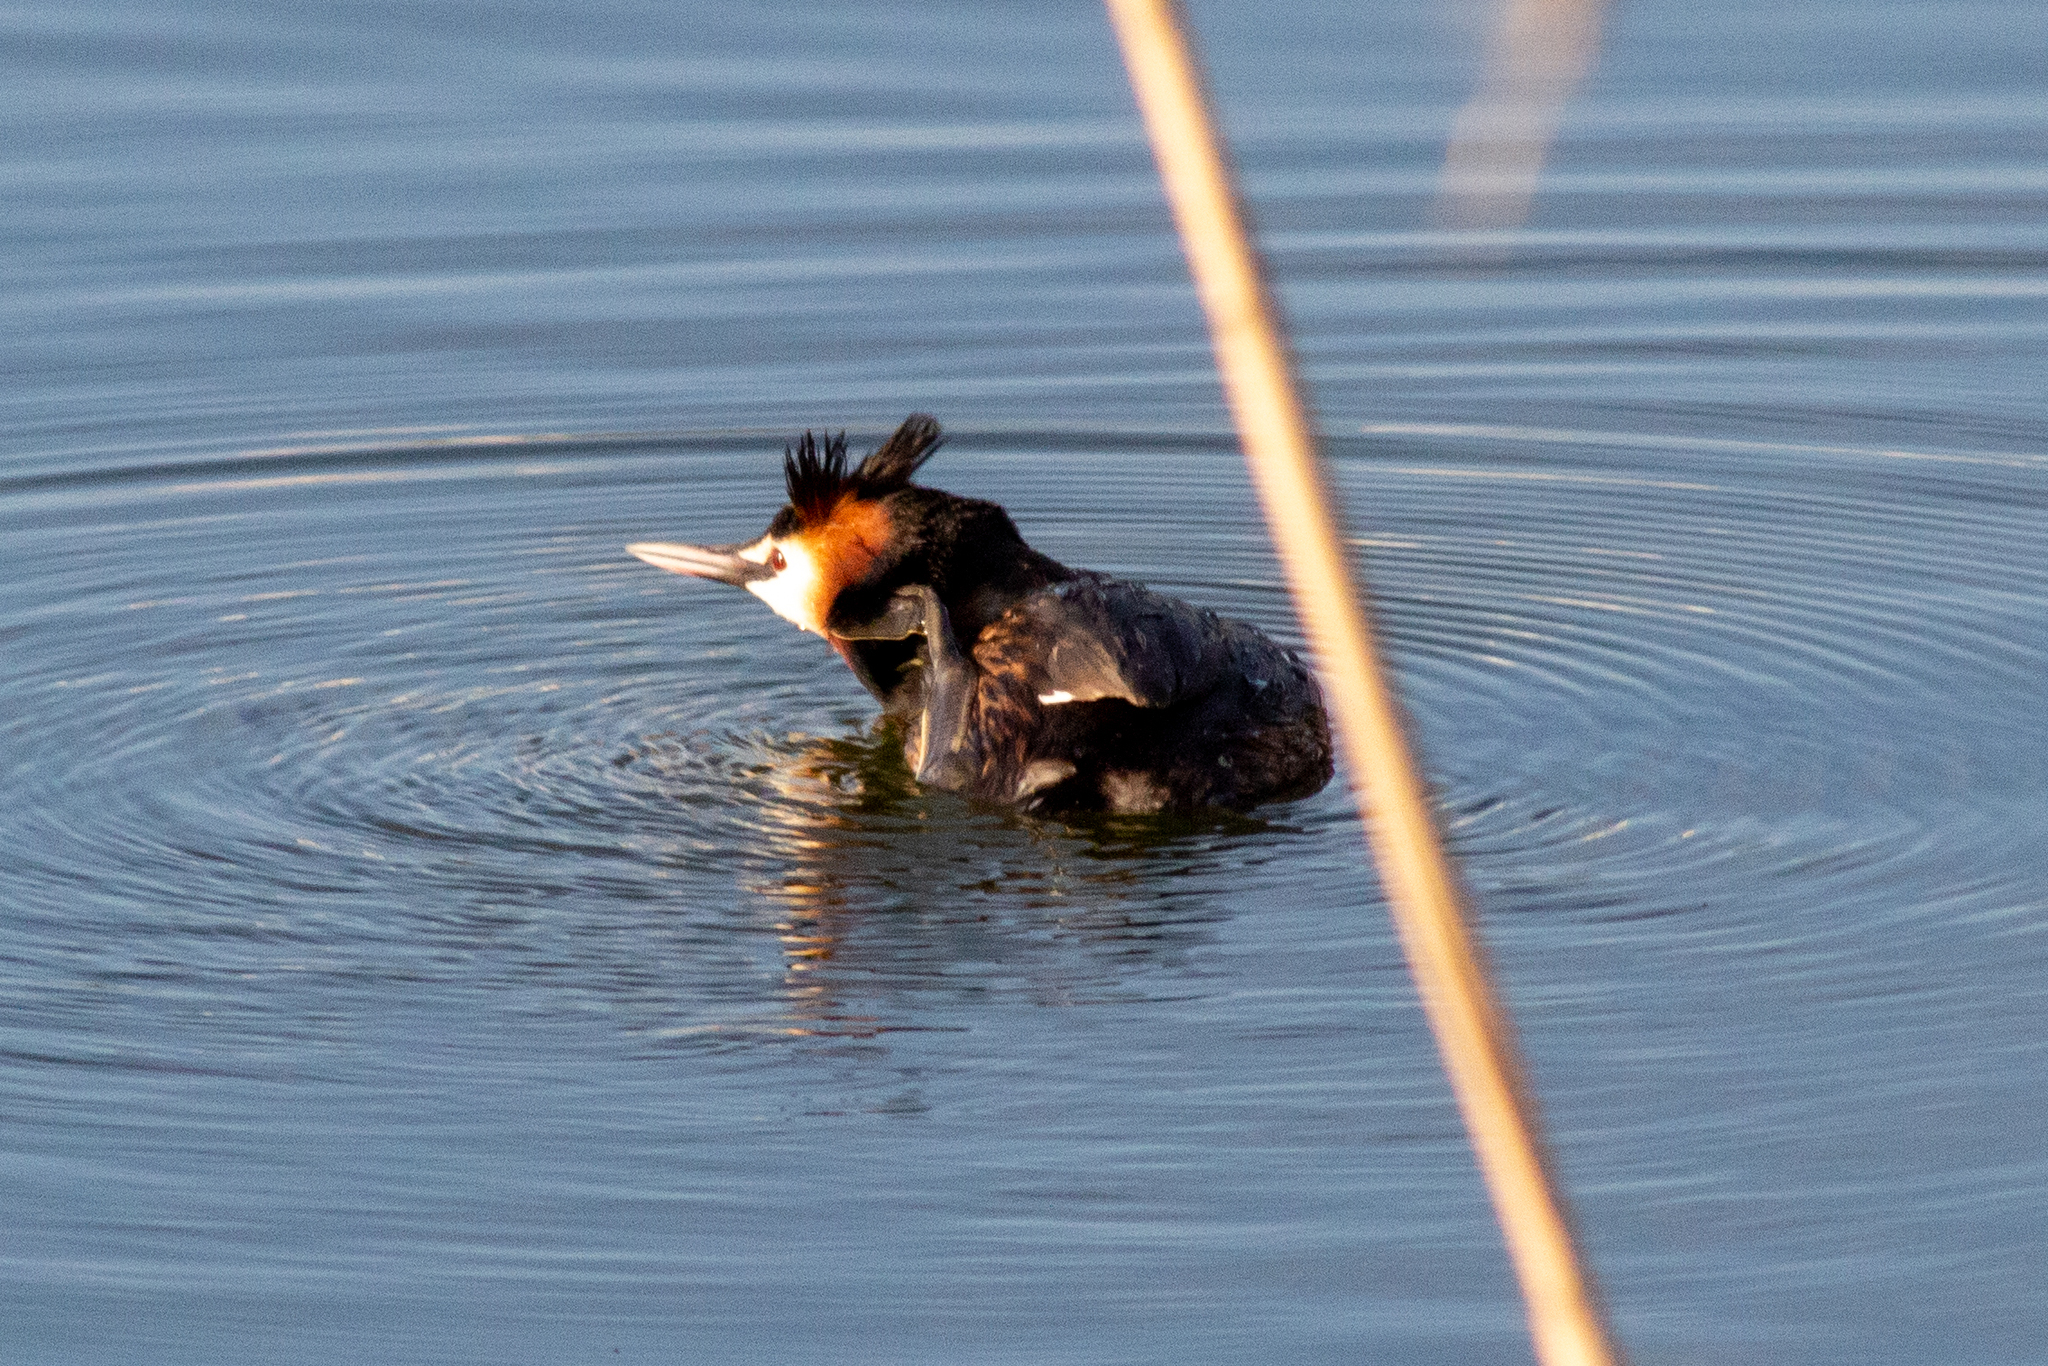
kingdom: Animalia
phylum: Chordata
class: Aves
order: Podicipediformes
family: Podicipedidae
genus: Podiceps
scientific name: Podiceps cristatus
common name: Great crested grebe
